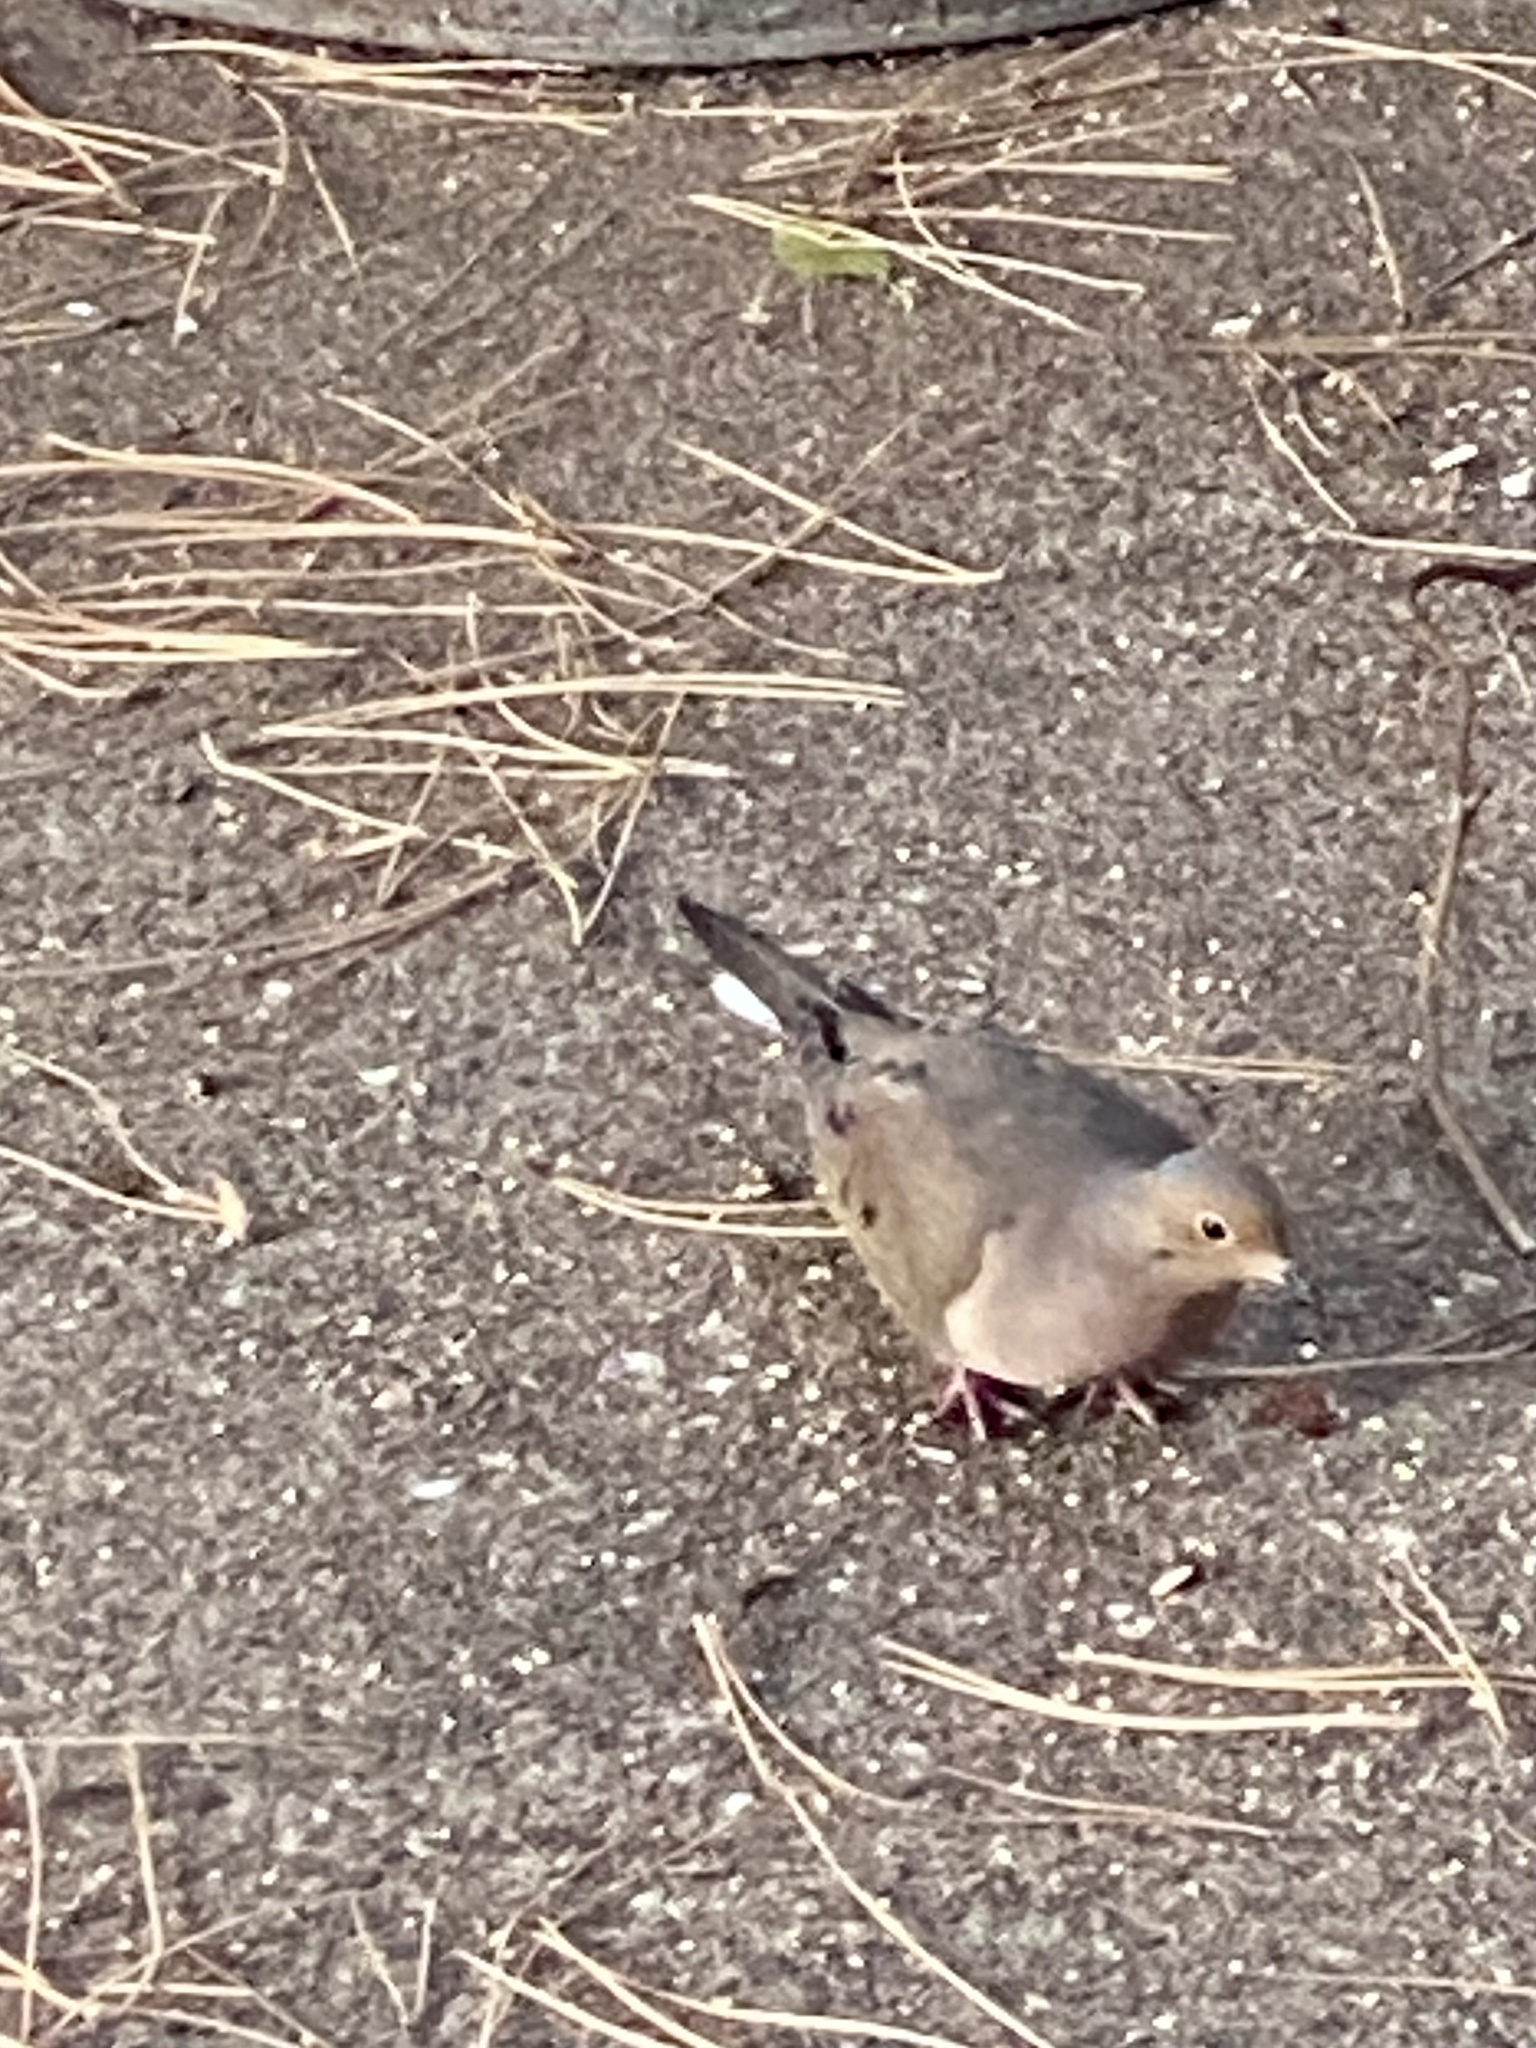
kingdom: Animalia
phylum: Chordata
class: Aves
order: Columbiformes
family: Columbidae
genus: Zenaida
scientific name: Zenaida macroura
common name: Mourning dove
